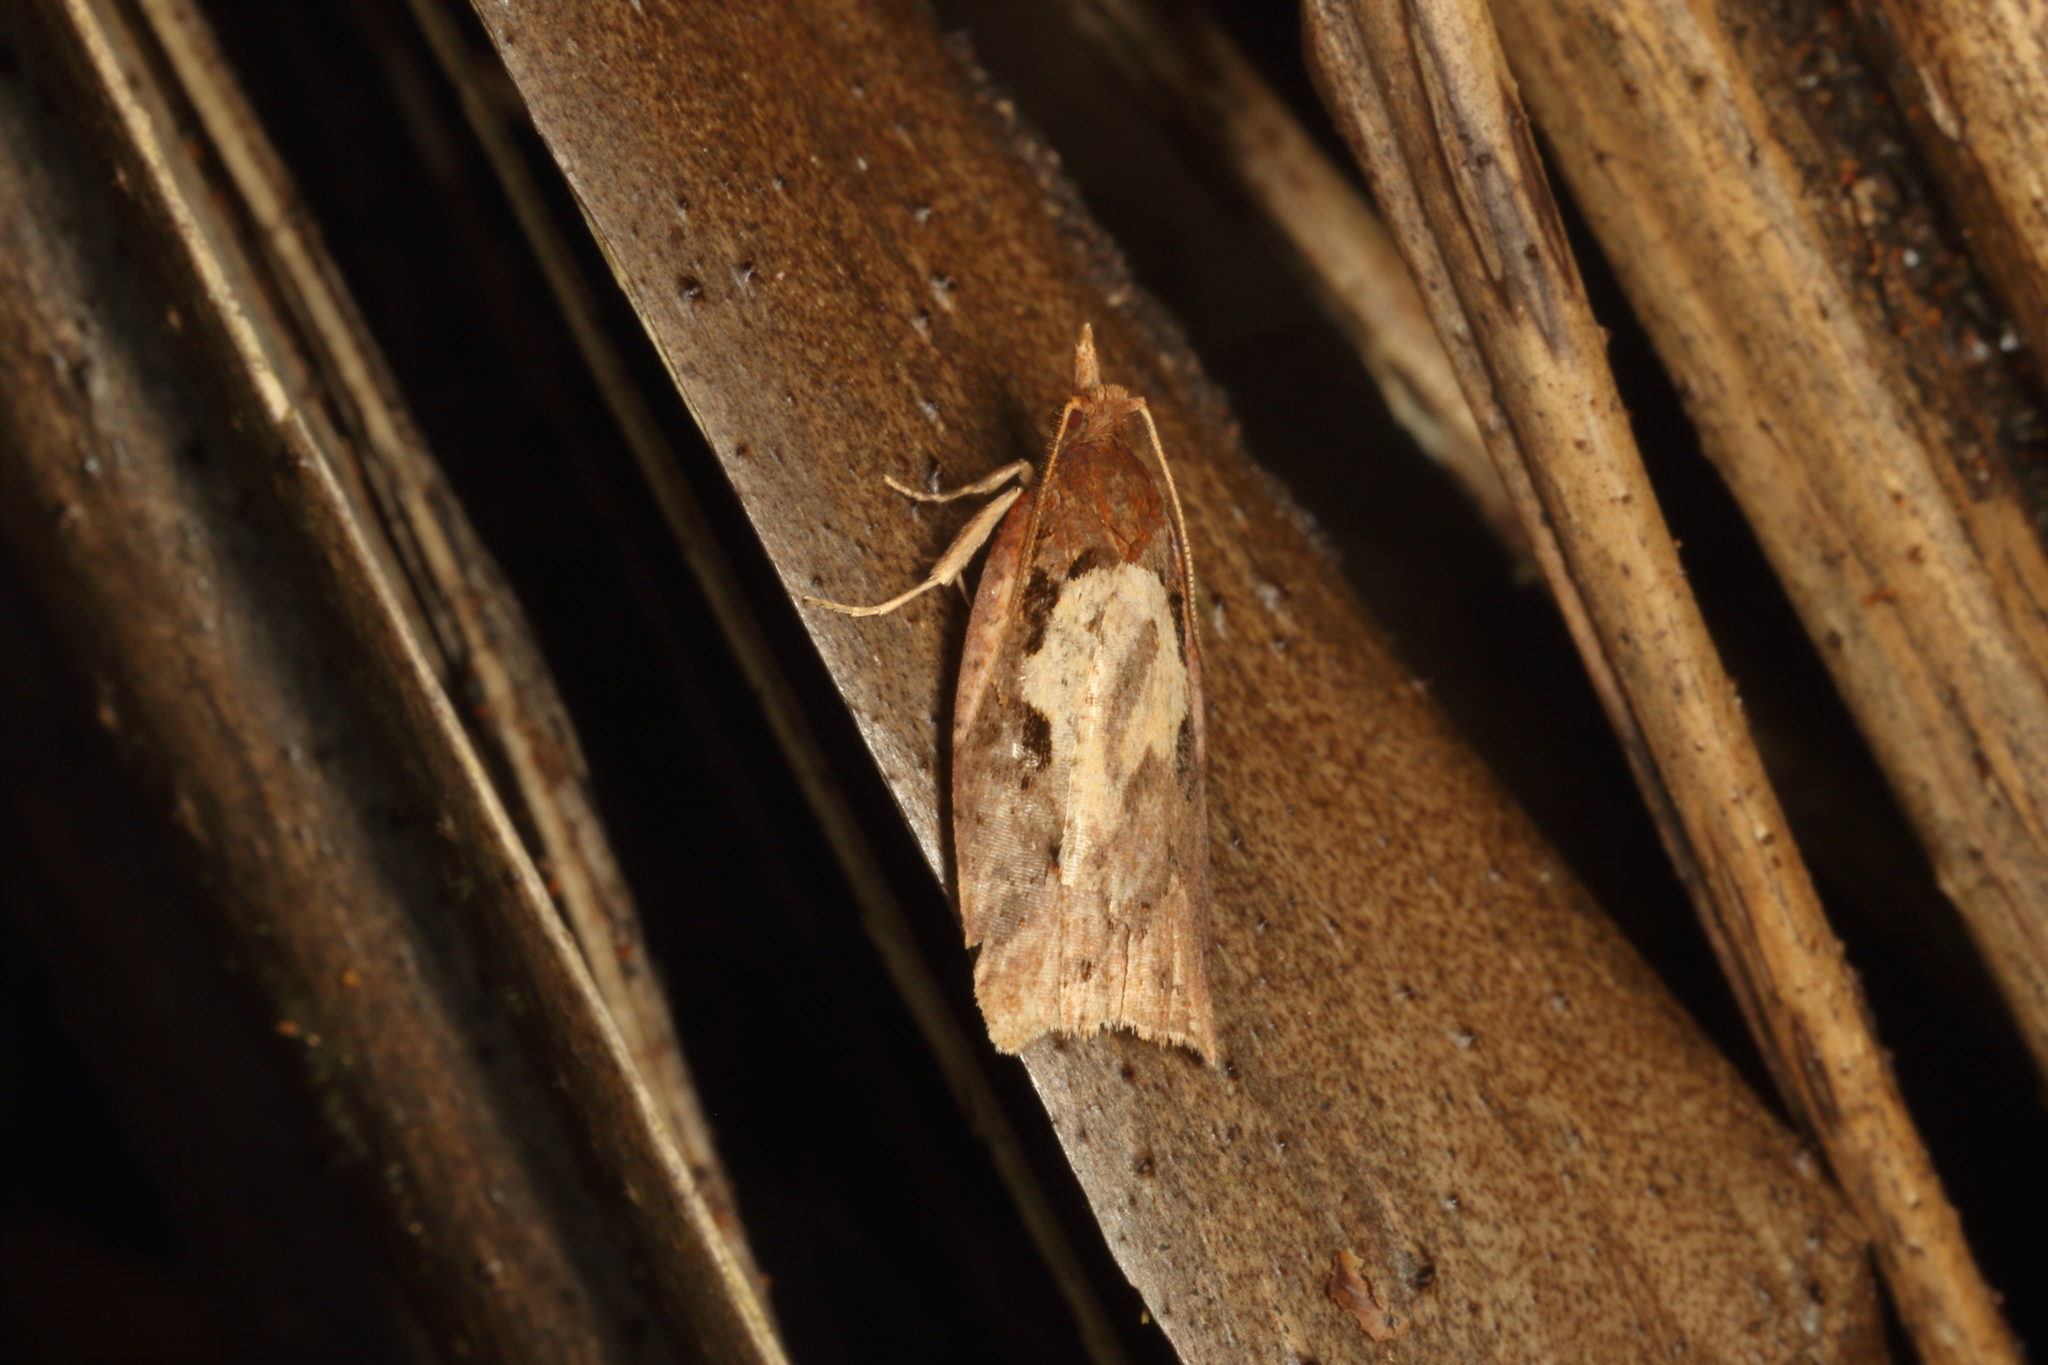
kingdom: Animalia
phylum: Arthropoda
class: Insecta
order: Lepidoptera
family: Tortricidae
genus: Ctenopseustis
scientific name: Ctenopseustis fraterna
